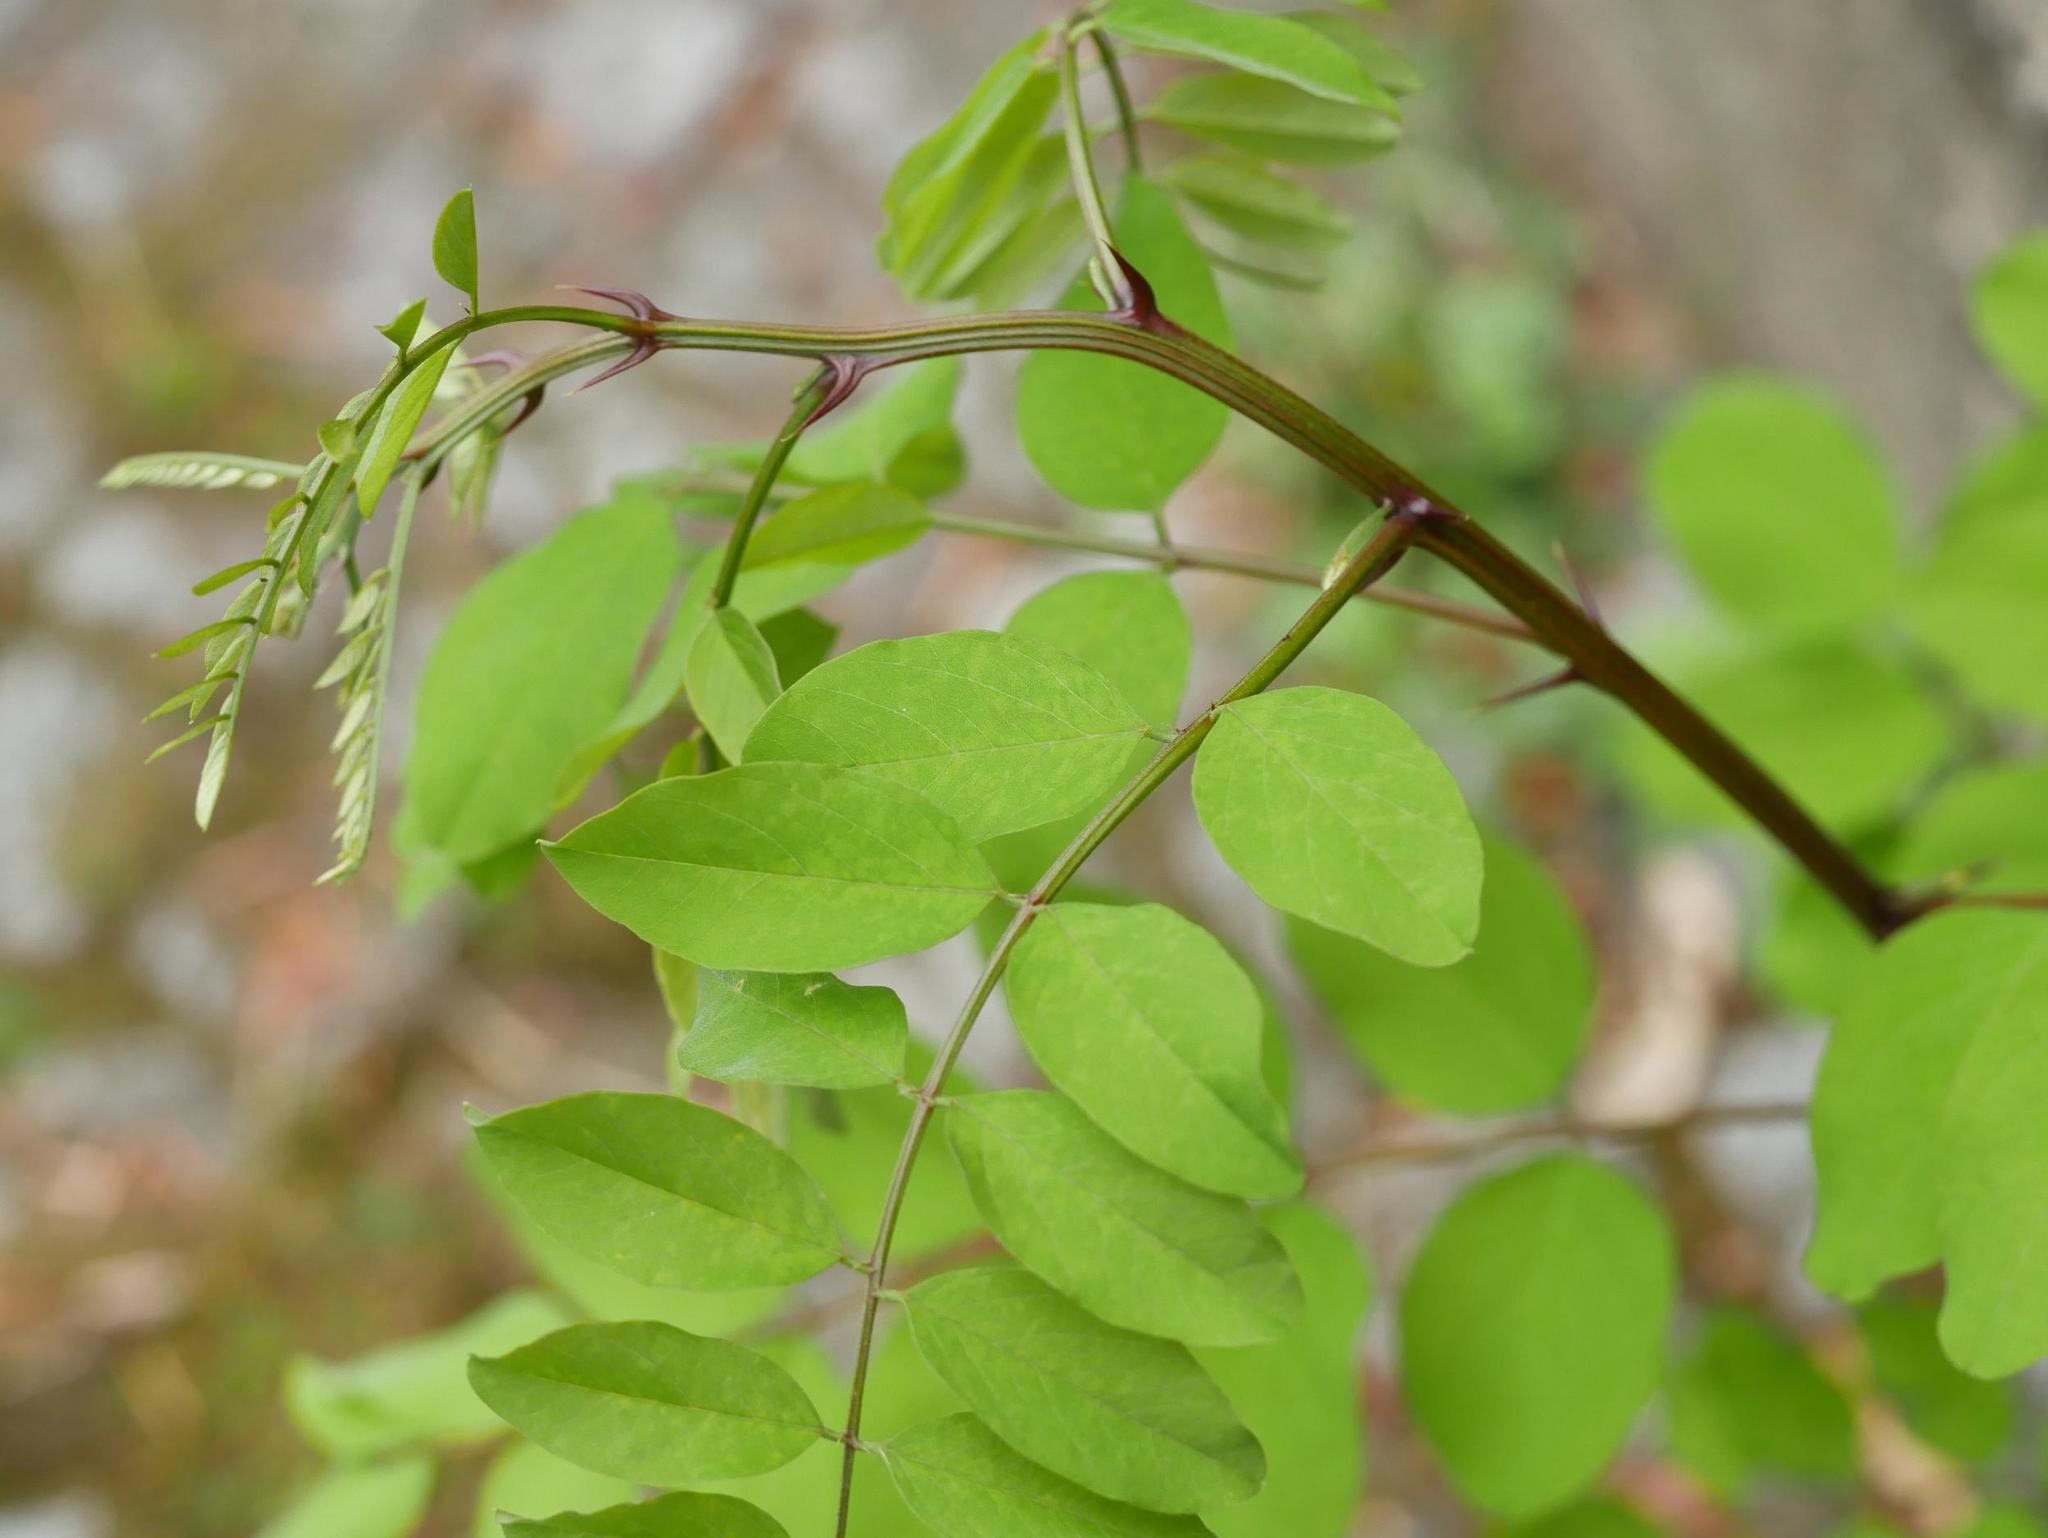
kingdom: Plantae
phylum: Tracheophyta
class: Magnoliopsida
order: Fabales
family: Fabaceae
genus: Robinia
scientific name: Robinia pseudoacacia
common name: Black locust
